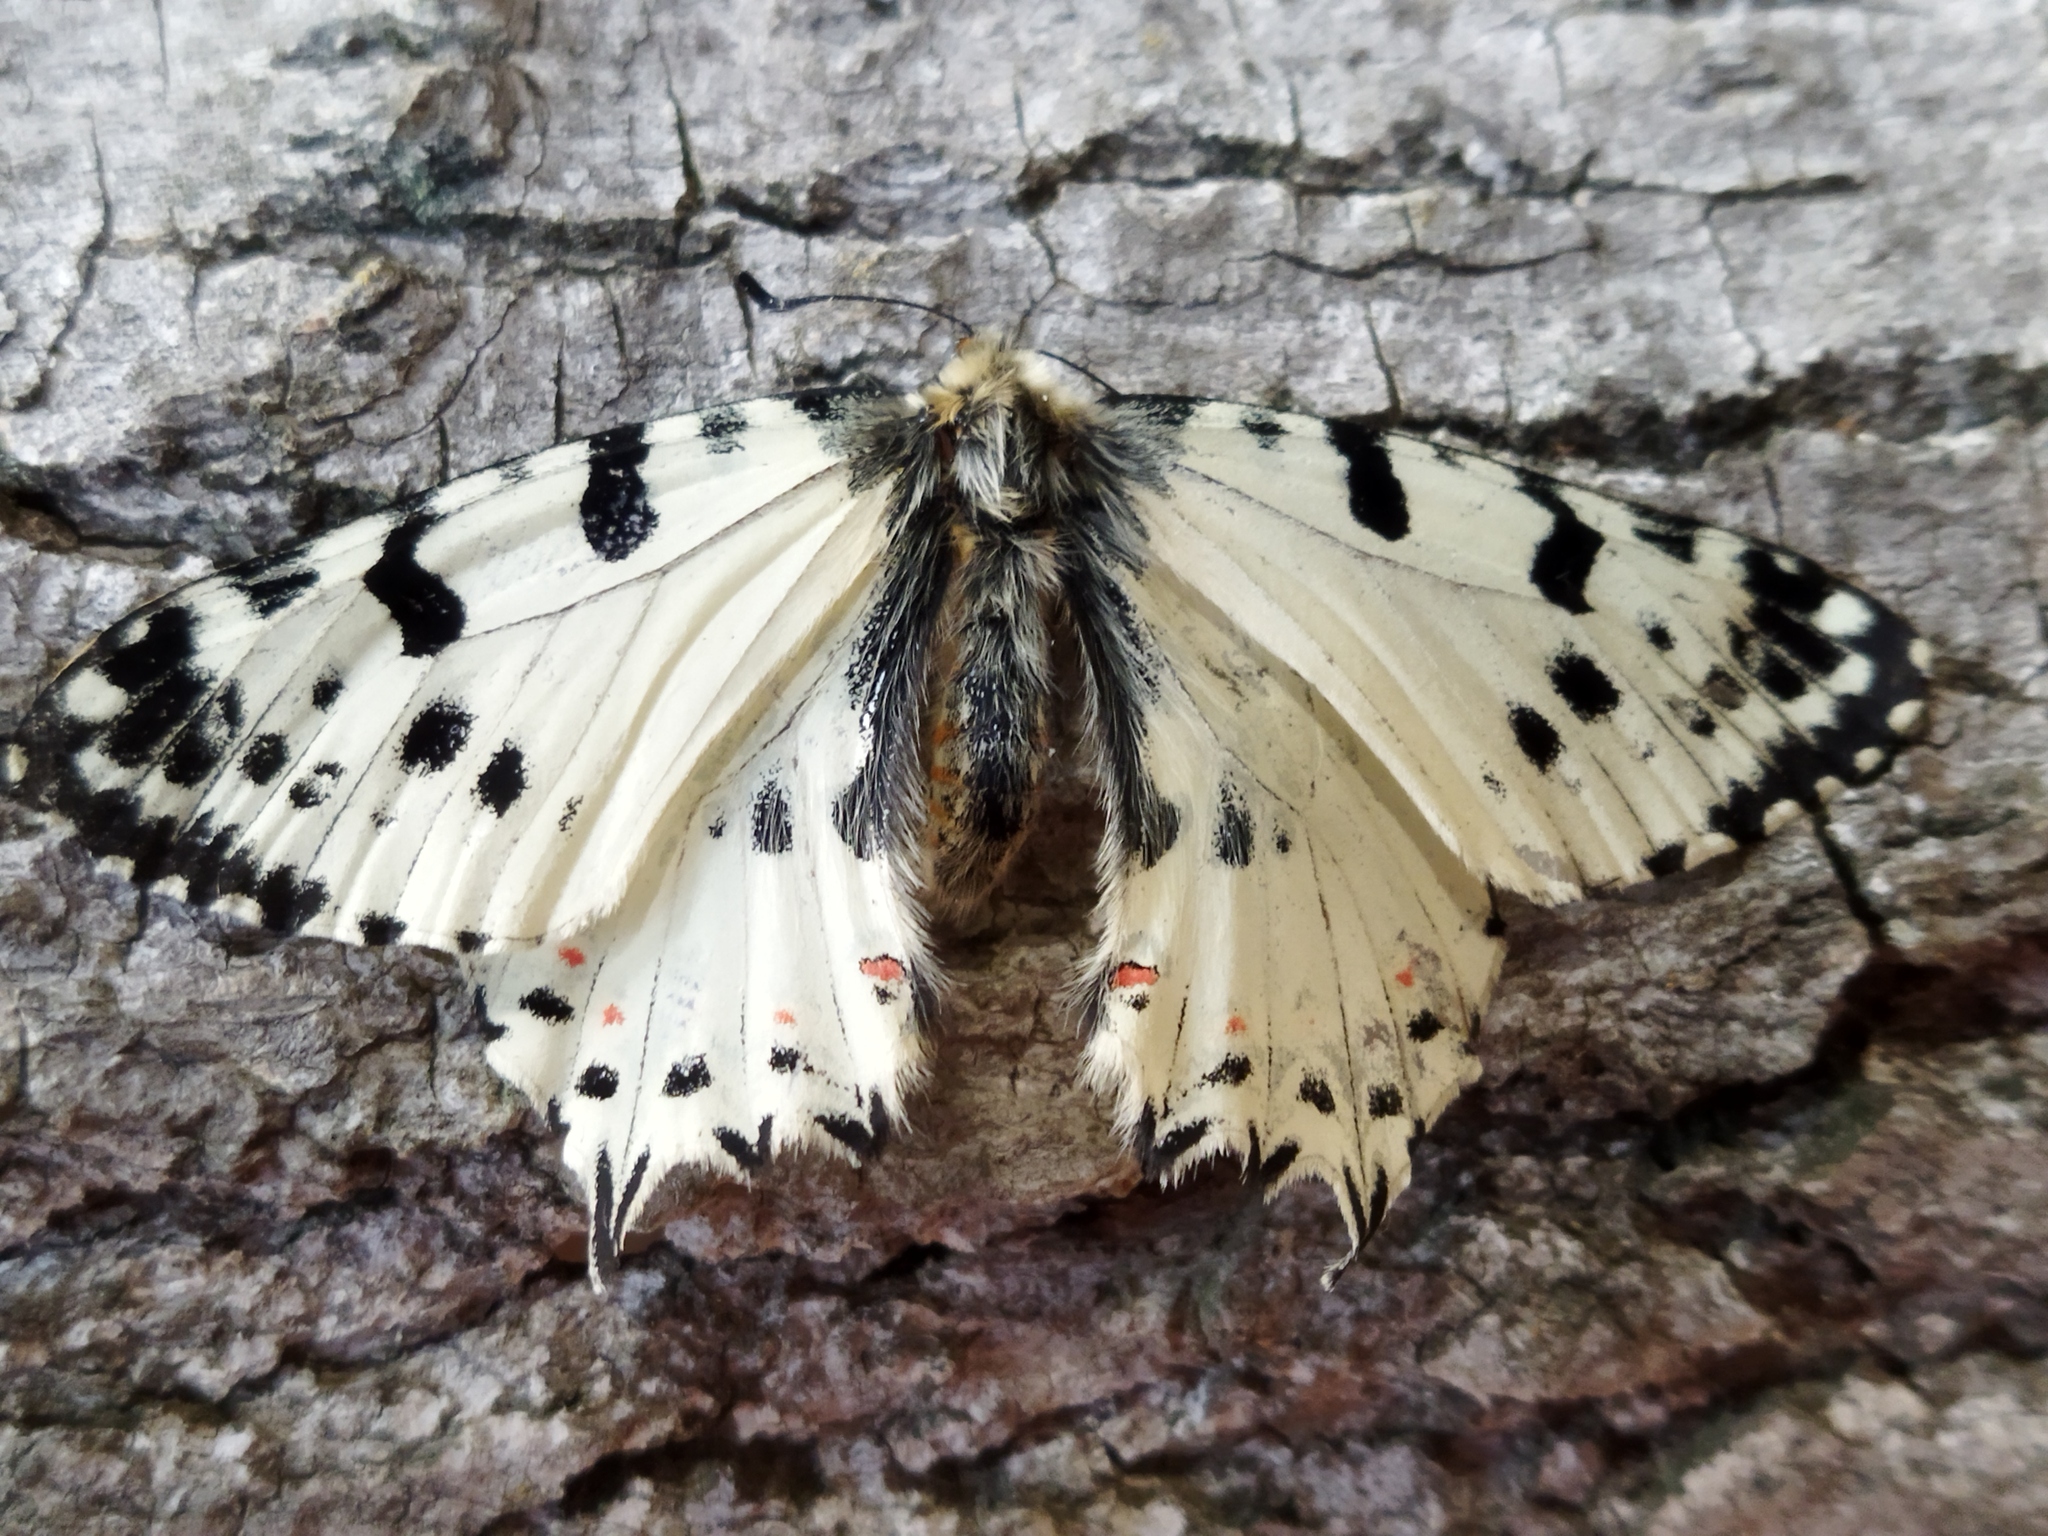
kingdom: Animalia
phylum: Arthropoda
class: Insecta
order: Lepidoptera
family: Papilionidae
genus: Zerynthia
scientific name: Zerynthia cerisy
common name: Eastern festoon
